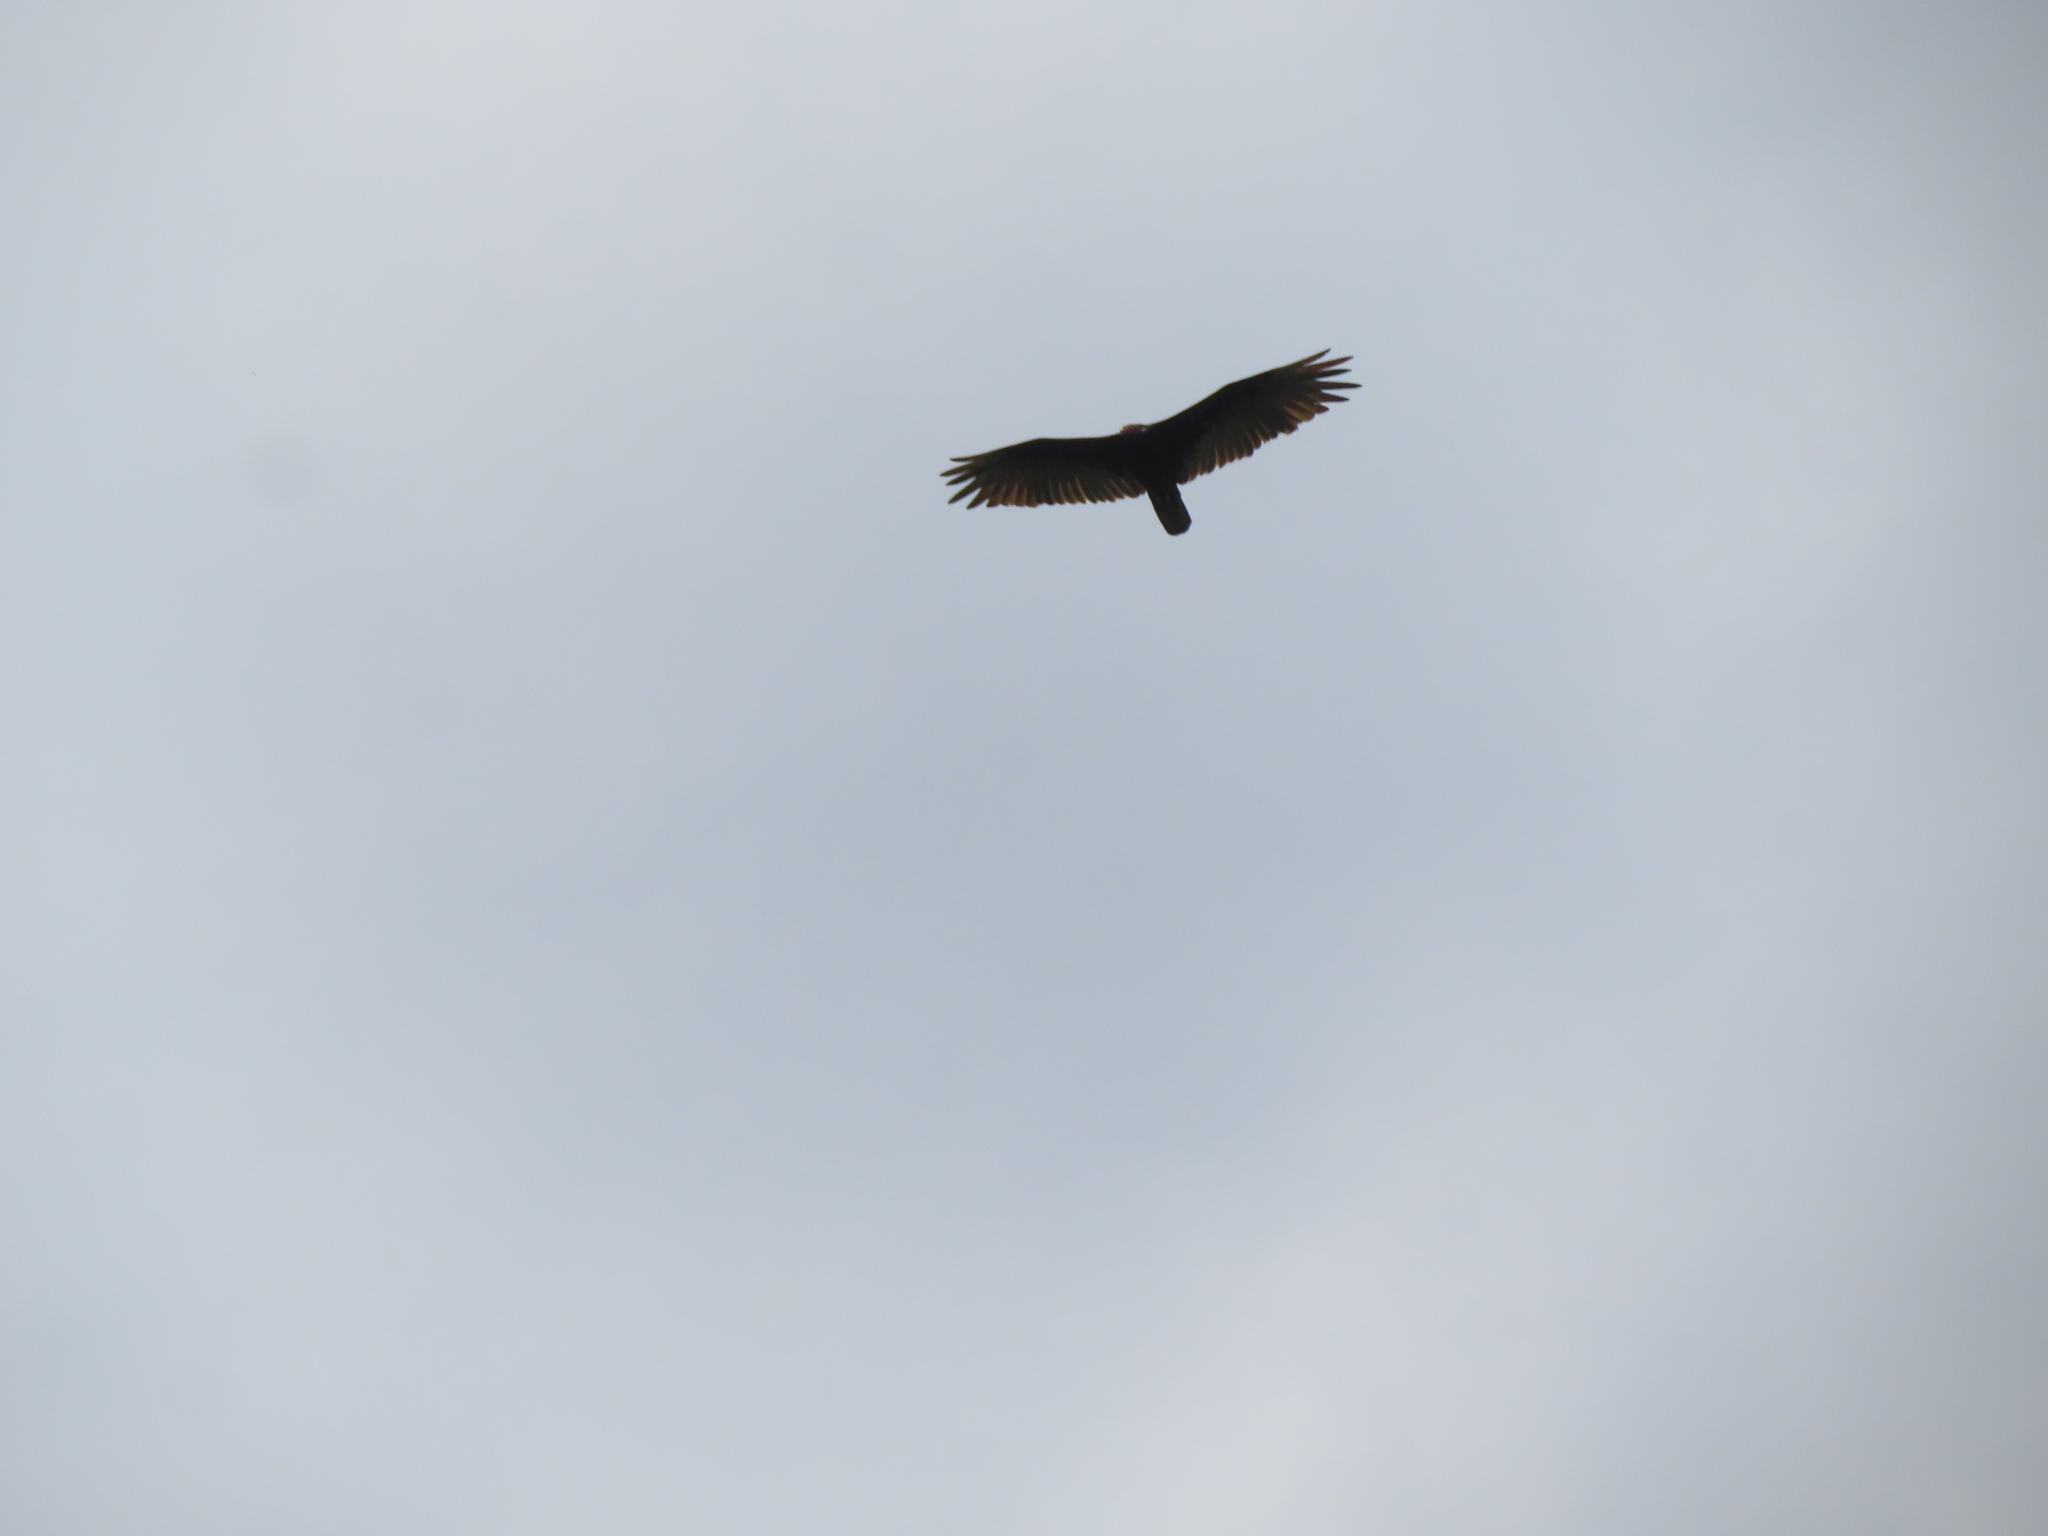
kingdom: Animalia
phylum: Chordata
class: Aves
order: Accipitriformes
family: Cathartidae
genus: Cathartes
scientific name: Cathartes aura
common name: Turkey vulture
